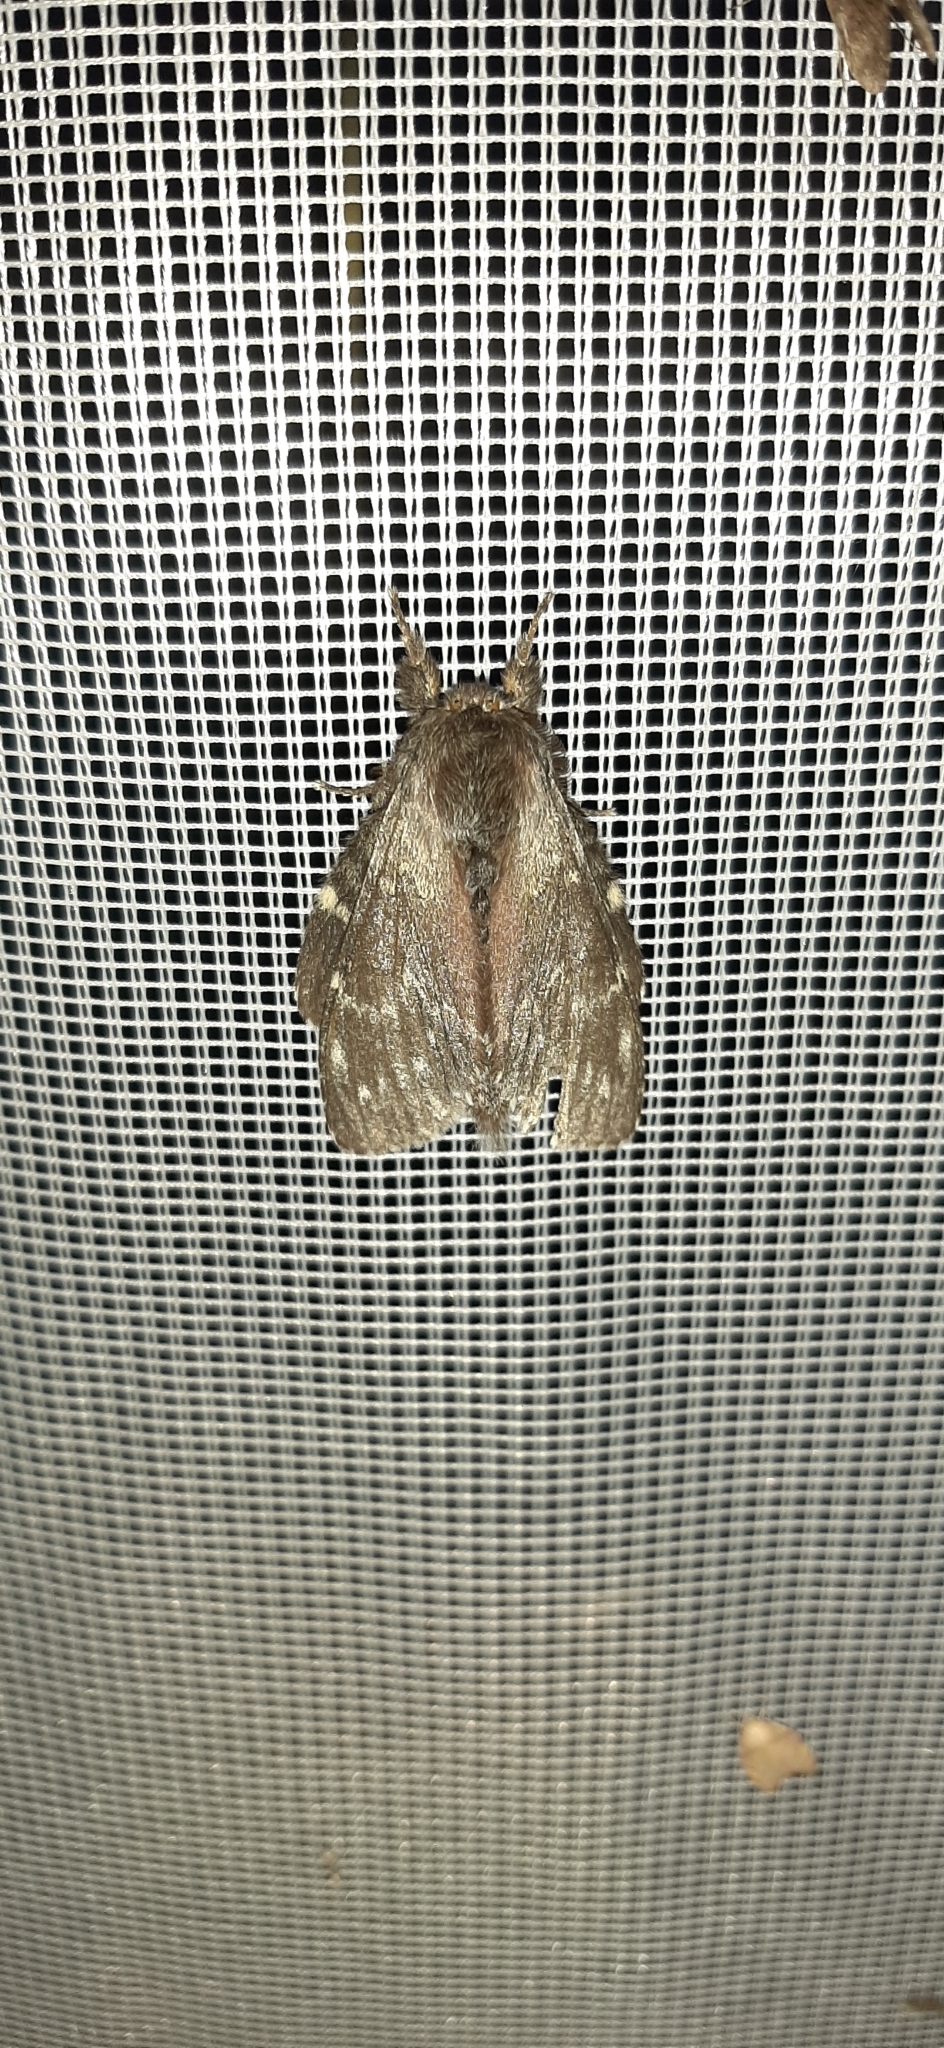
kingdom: Animalia
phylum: Arthropoda
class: Insecta
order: Lepidoptera
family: Notodontidae
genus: Stauropus
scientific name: Stauropus fagi
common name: Lobster moth
